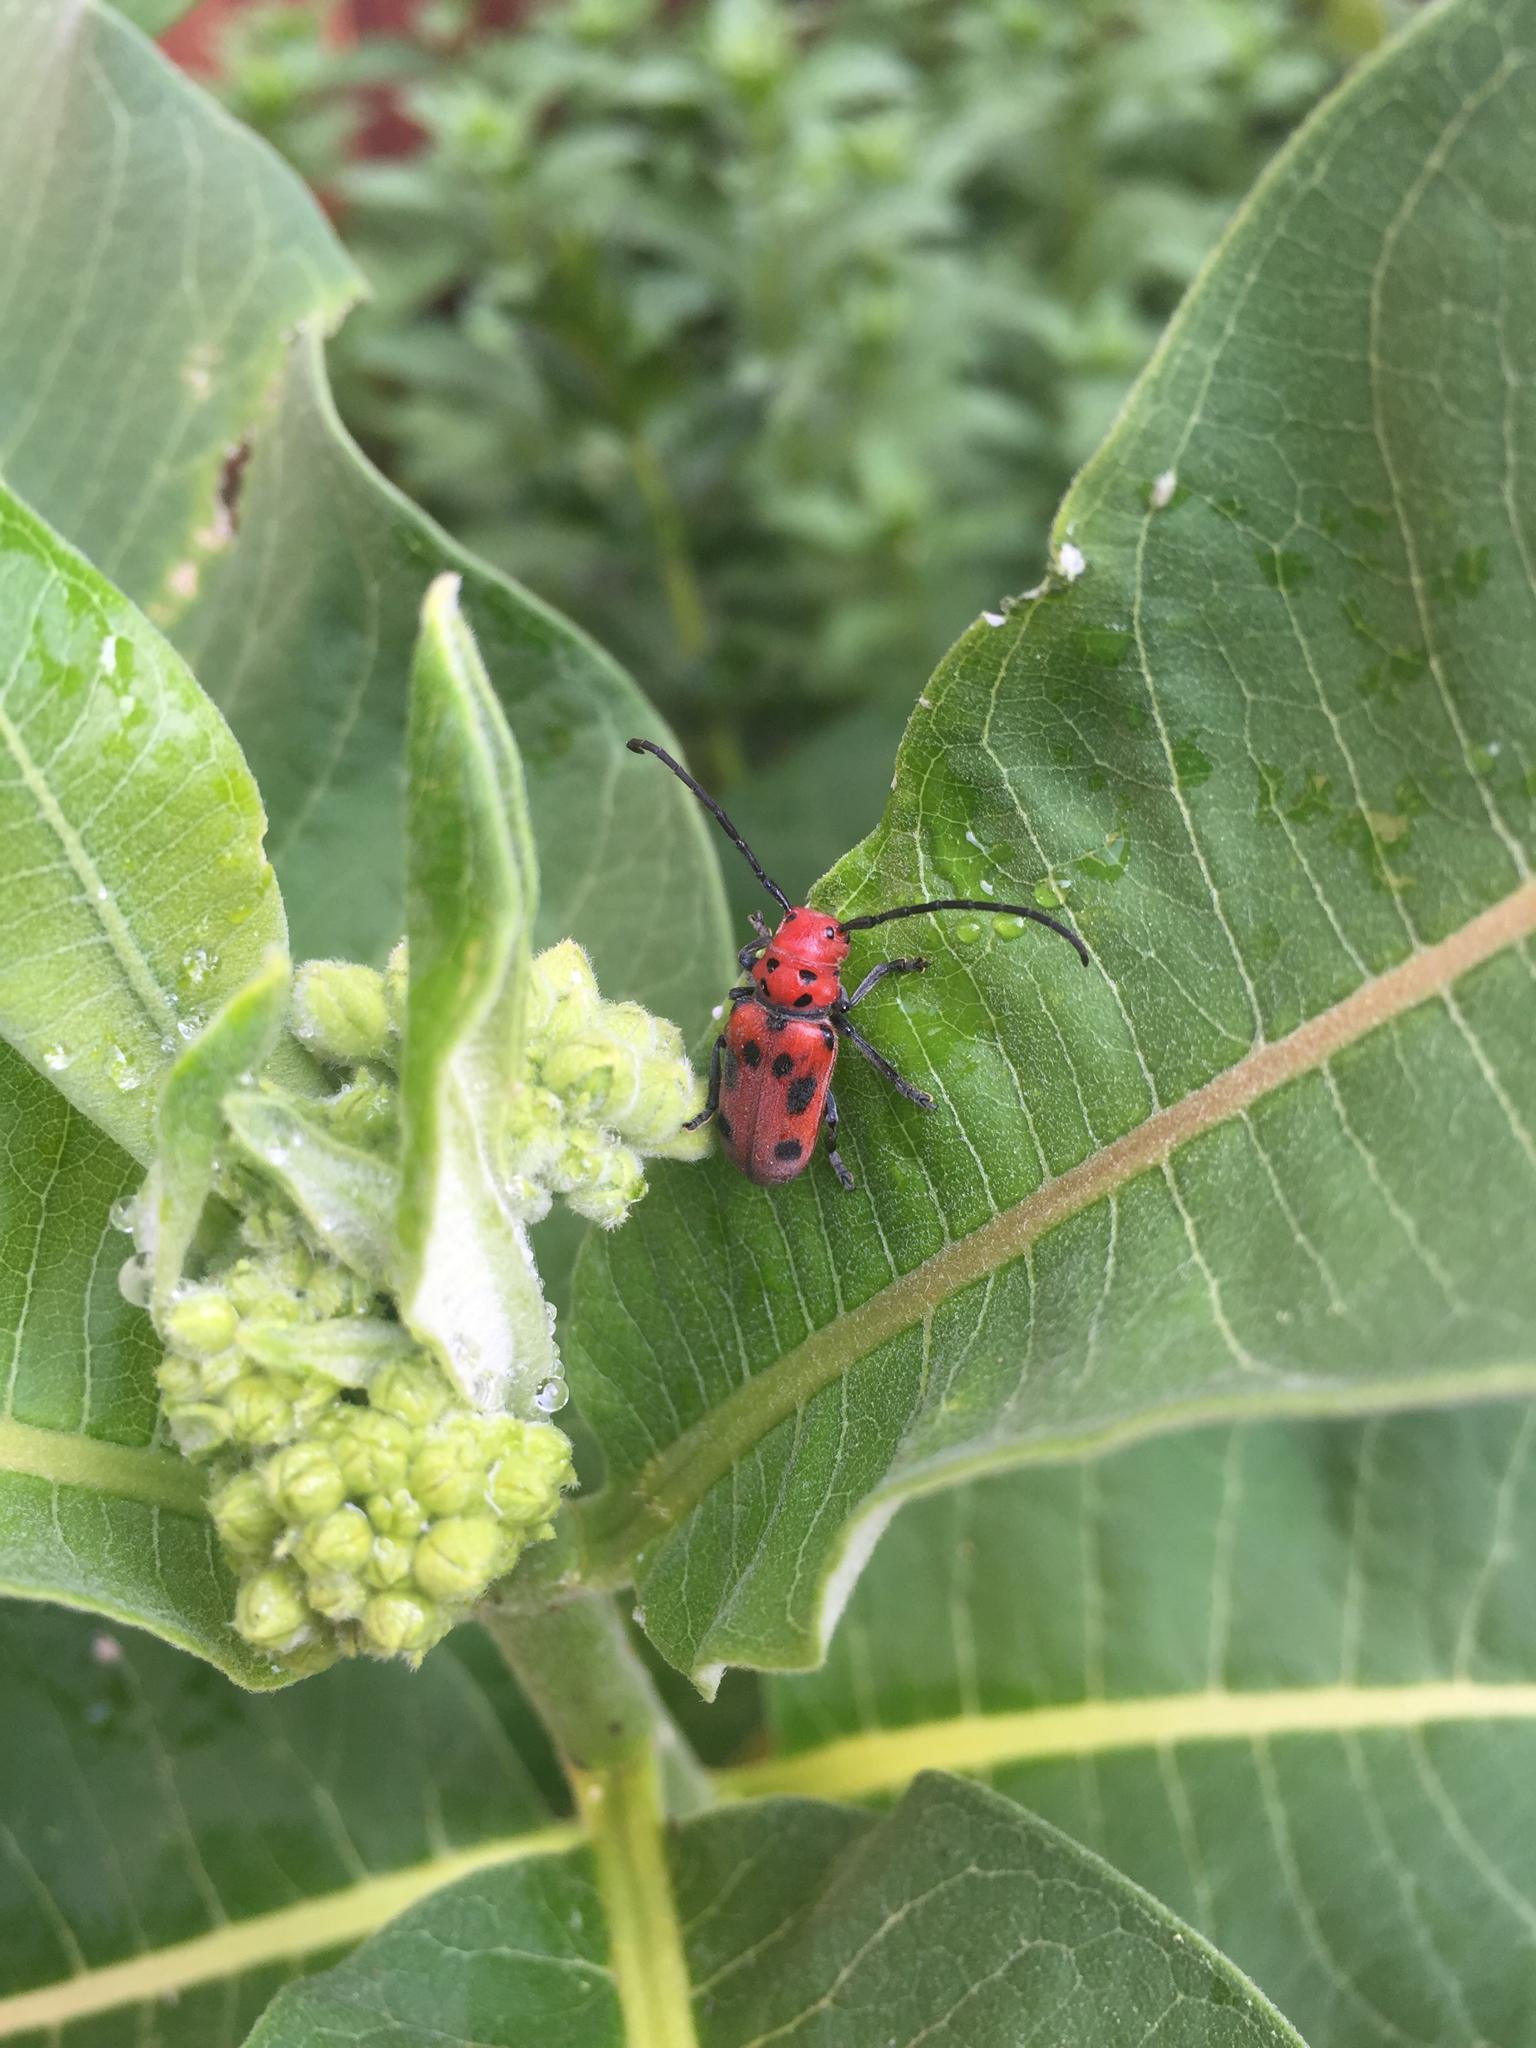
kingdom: Animalia
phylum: Arthropoda
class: Insecta
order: Coleoptera
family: Cerambycidae
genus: Tetraopes
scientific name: Tetraopes tetrophthalmus
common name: Red milkweed beetle
